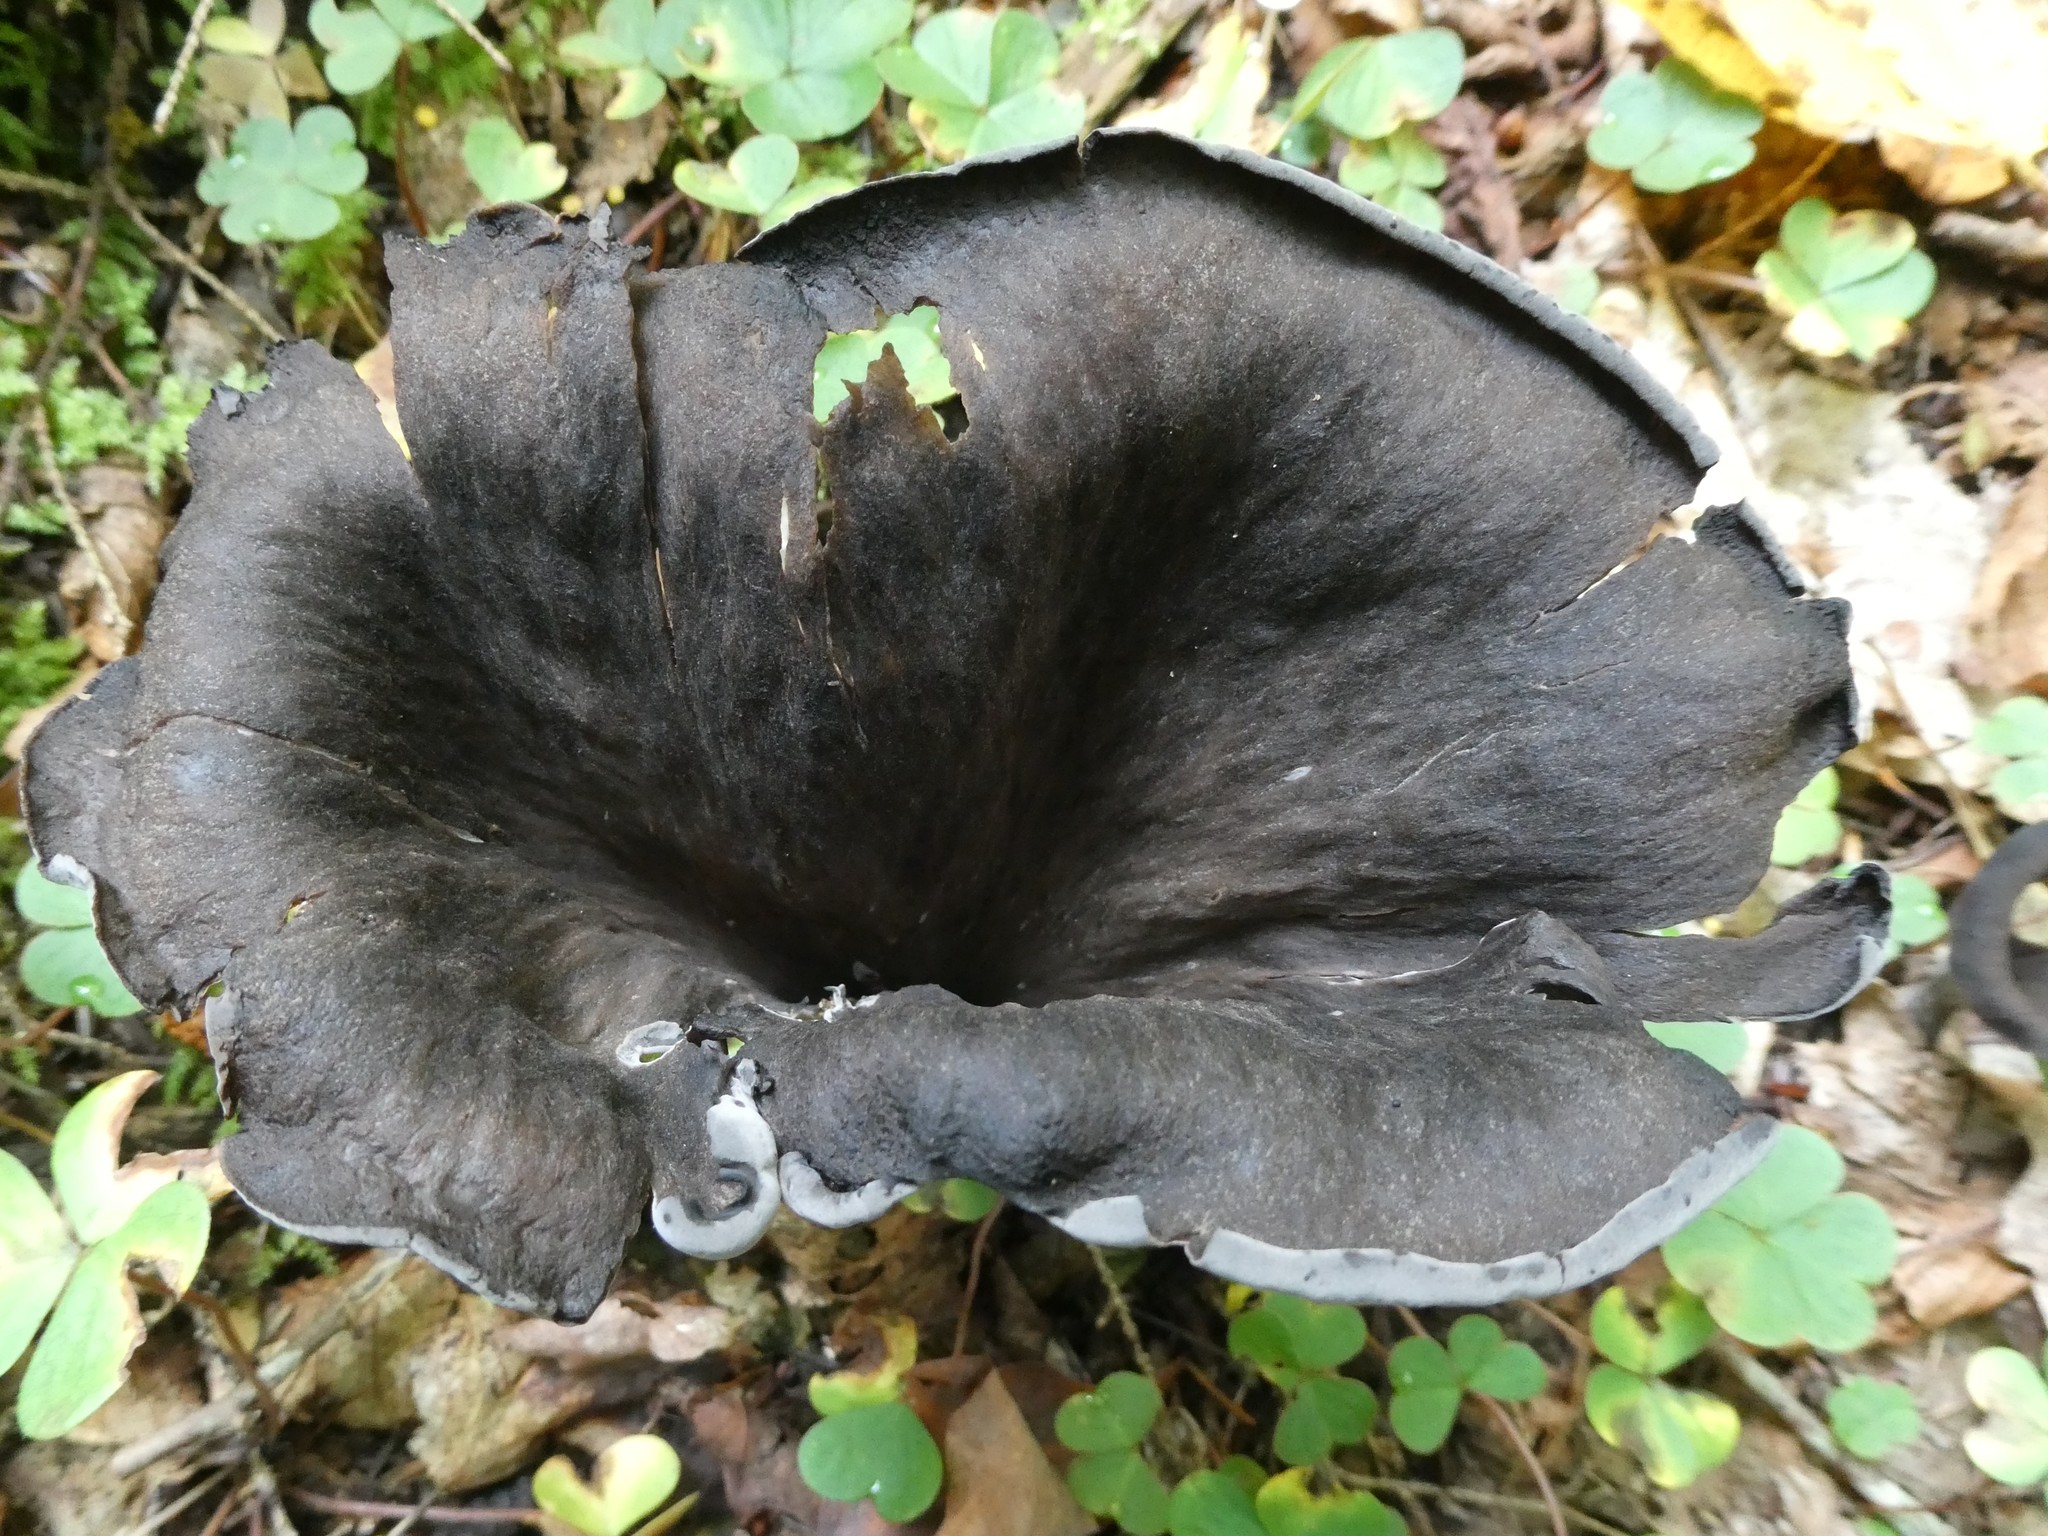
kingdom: Fungi
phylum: Basidiomycota
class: Agaricomycetes
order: Cantharellales
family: Hydnaceae
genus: Craterellus
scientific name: Craterellus cornucopioides
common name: Horn of plenty
